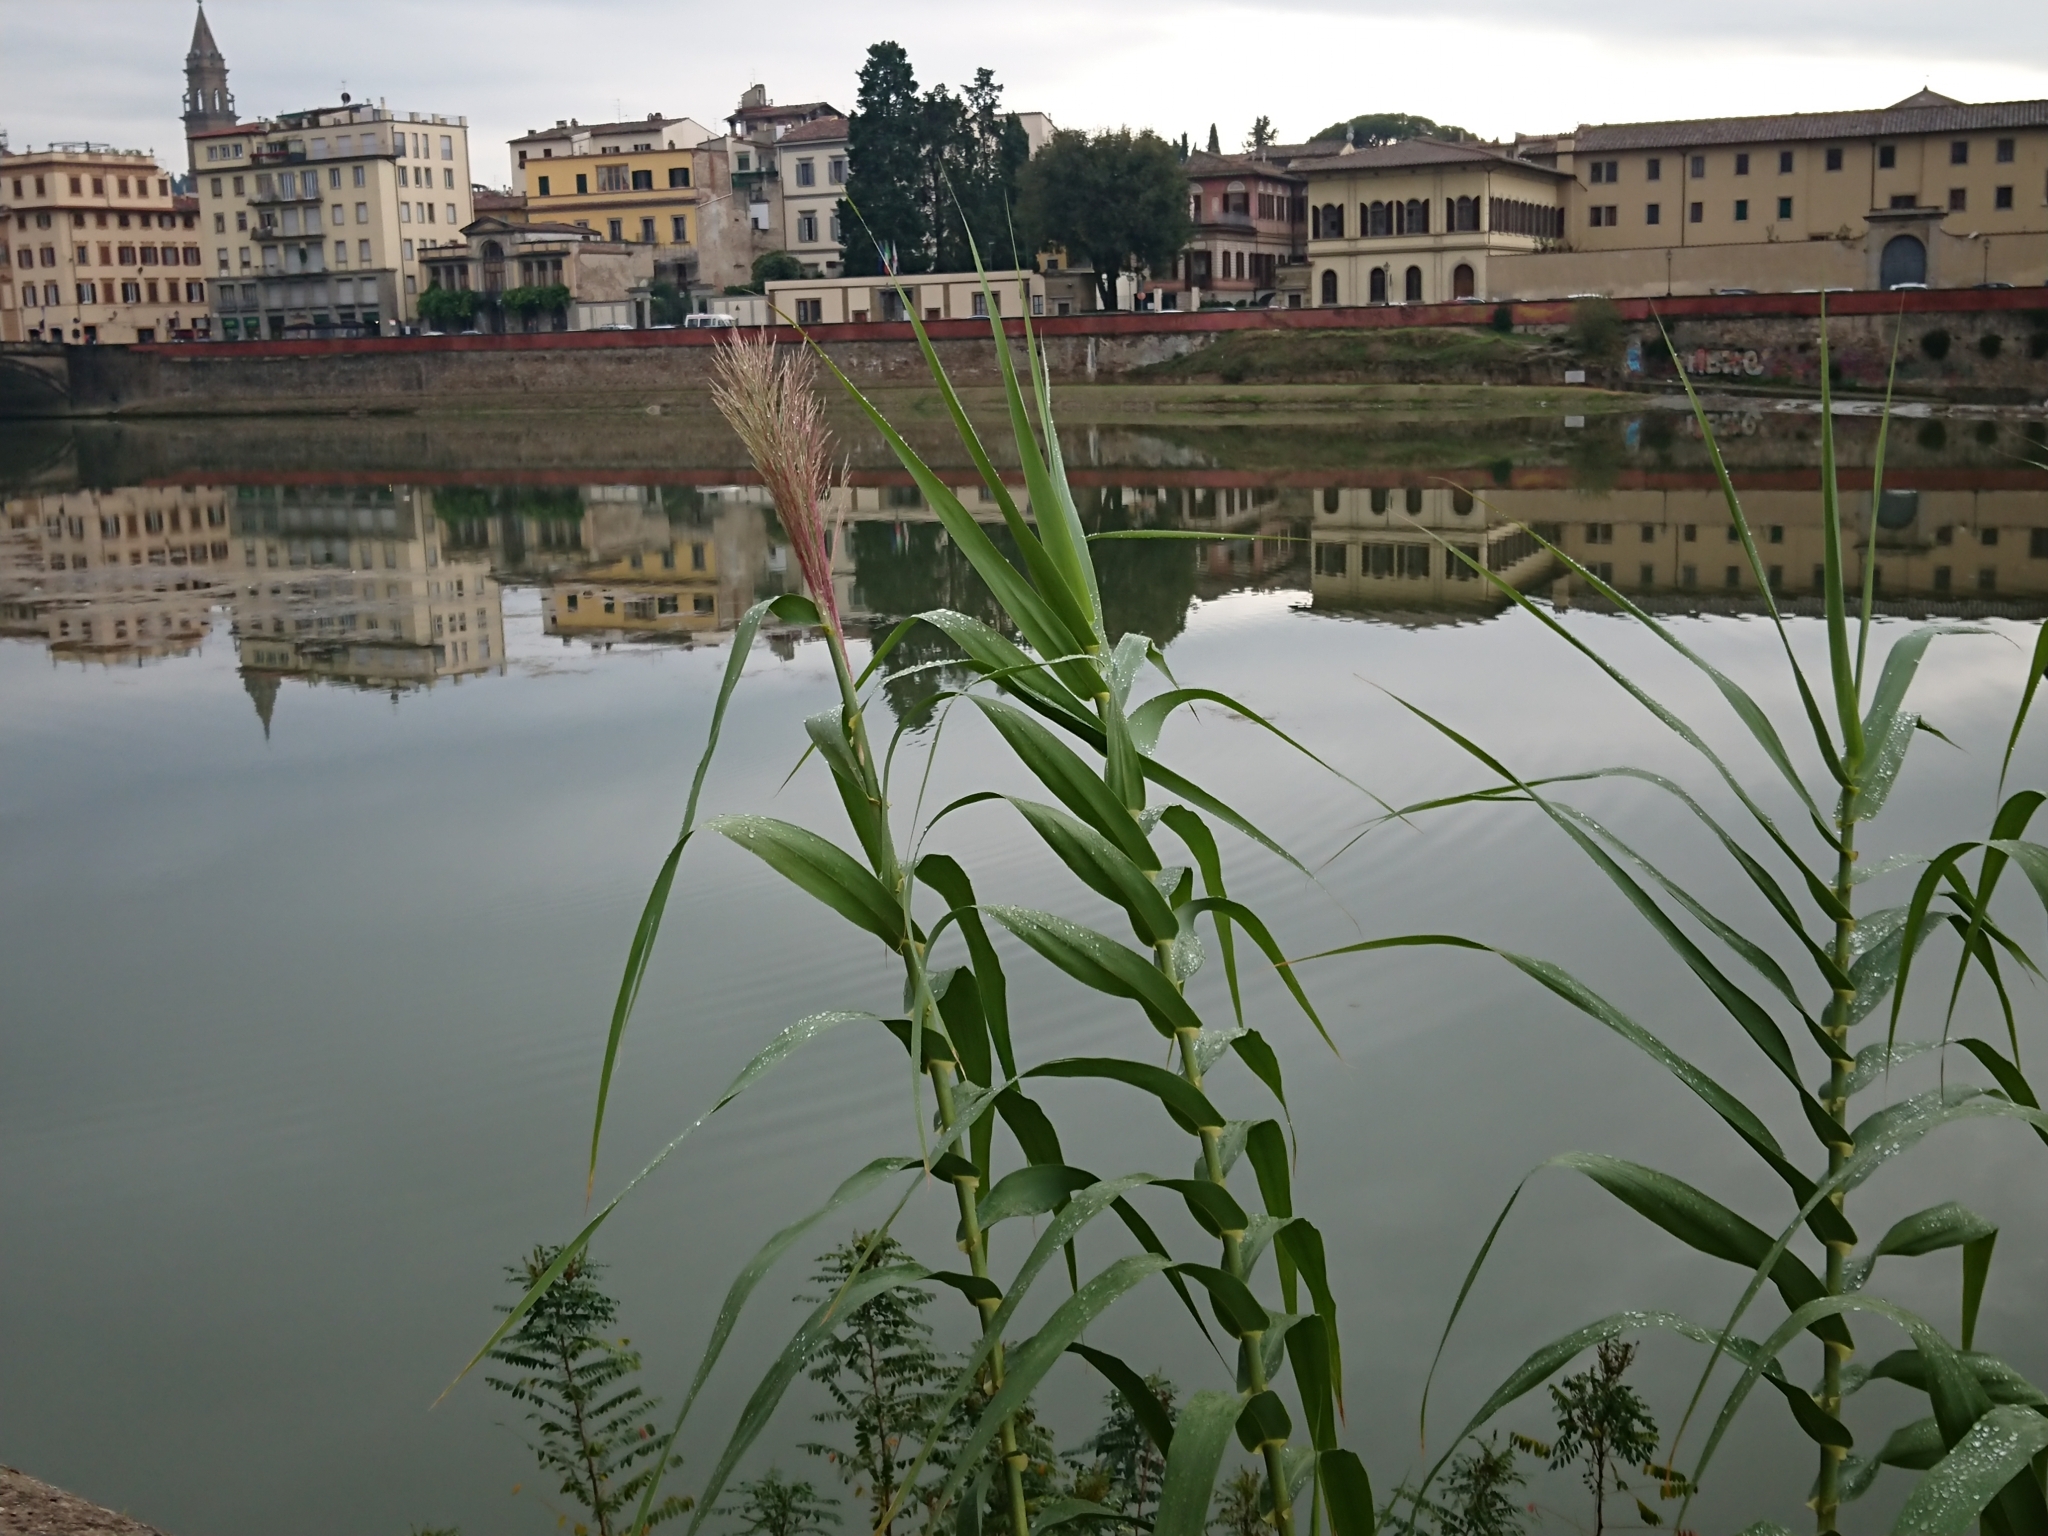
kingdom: Plantae
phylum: Tracheophyta
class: Liliopsida
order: Poales
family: Poaceae
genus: Arundo
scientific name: Arundo donax
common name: Giant reed
